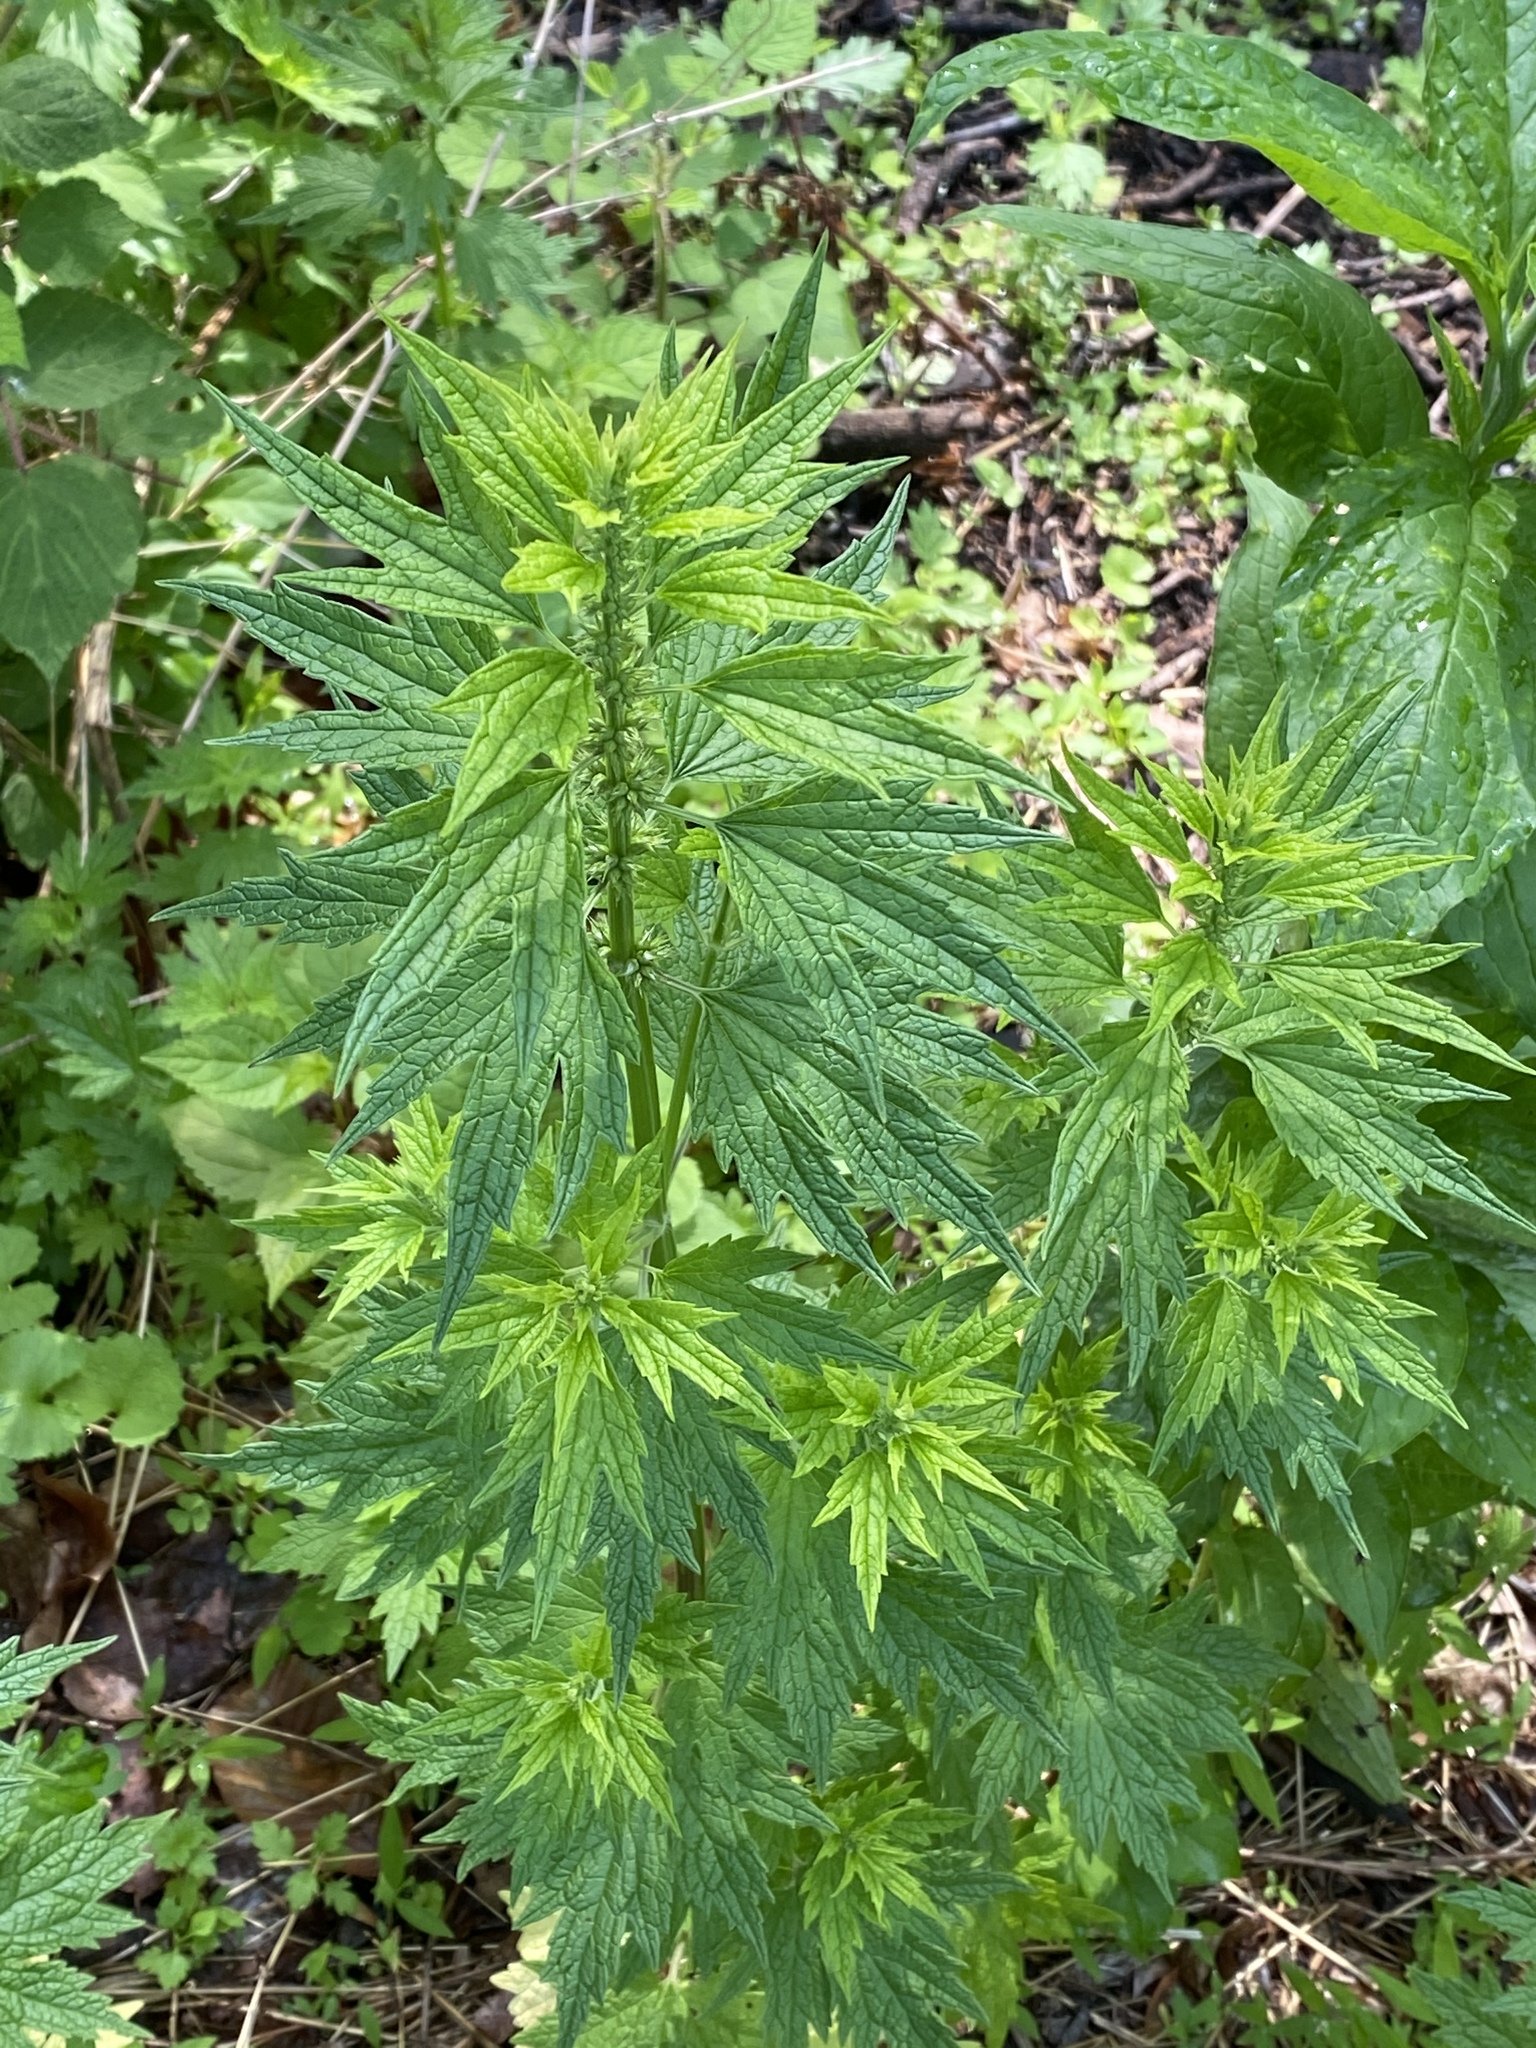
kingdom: Plantae
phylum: Tracheophyta
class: Magnoliopsida
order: Lamiales
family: Lamiaceae
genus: Leonurus
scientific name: Leonurus cardiaca
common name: Motherwort
